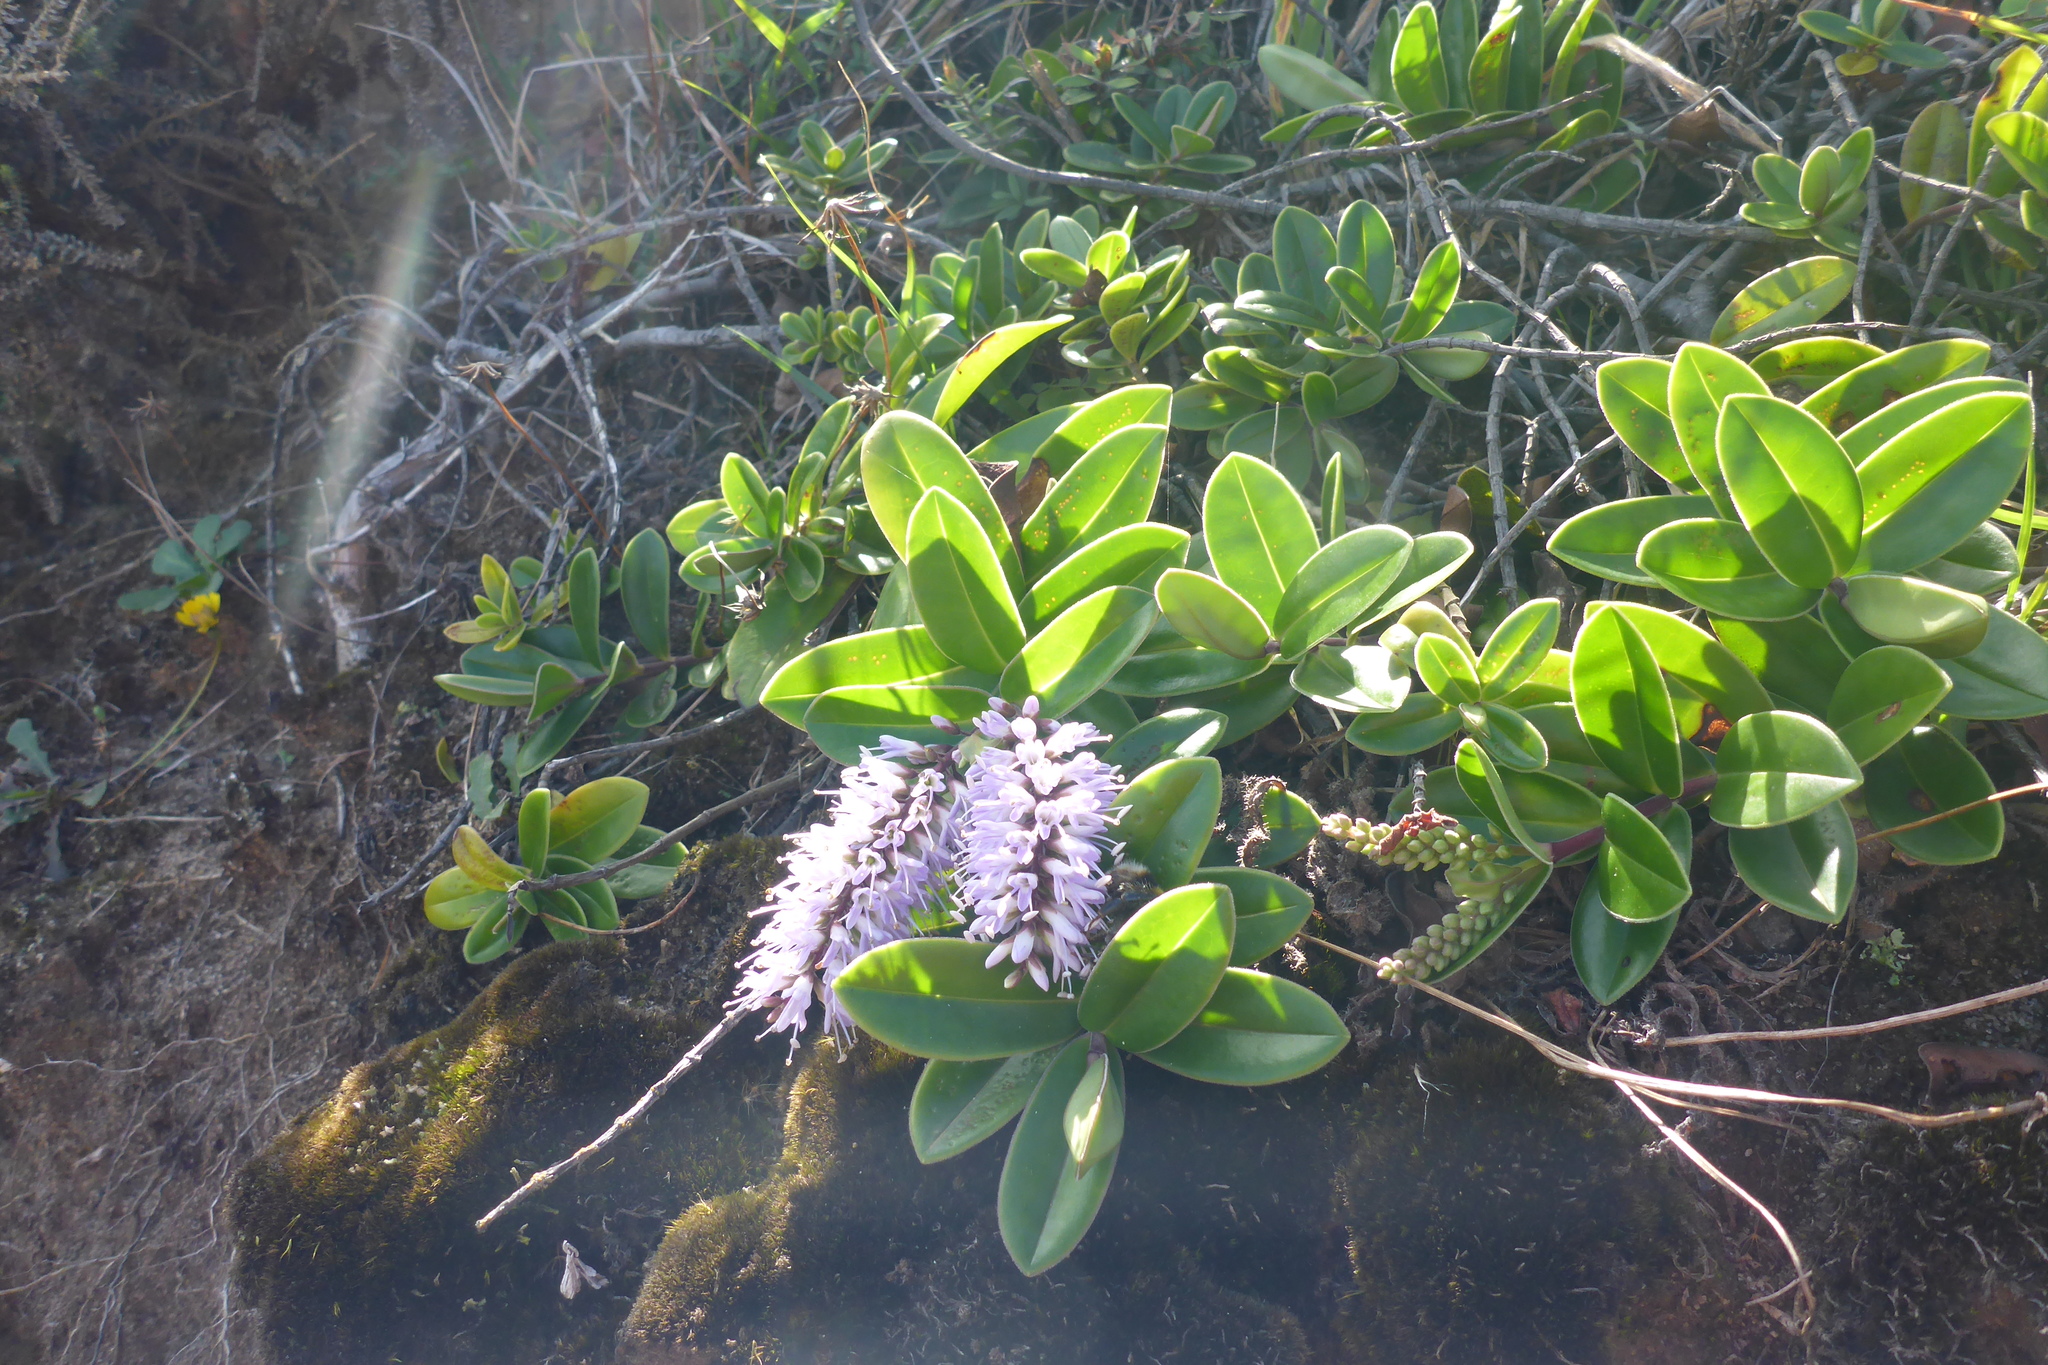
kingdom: Plantae
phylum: Tracheophyta
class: Magnoliopsida
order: Lamiales
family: Plantaginaceae
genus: Veronica
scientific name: Veronica obtusata
